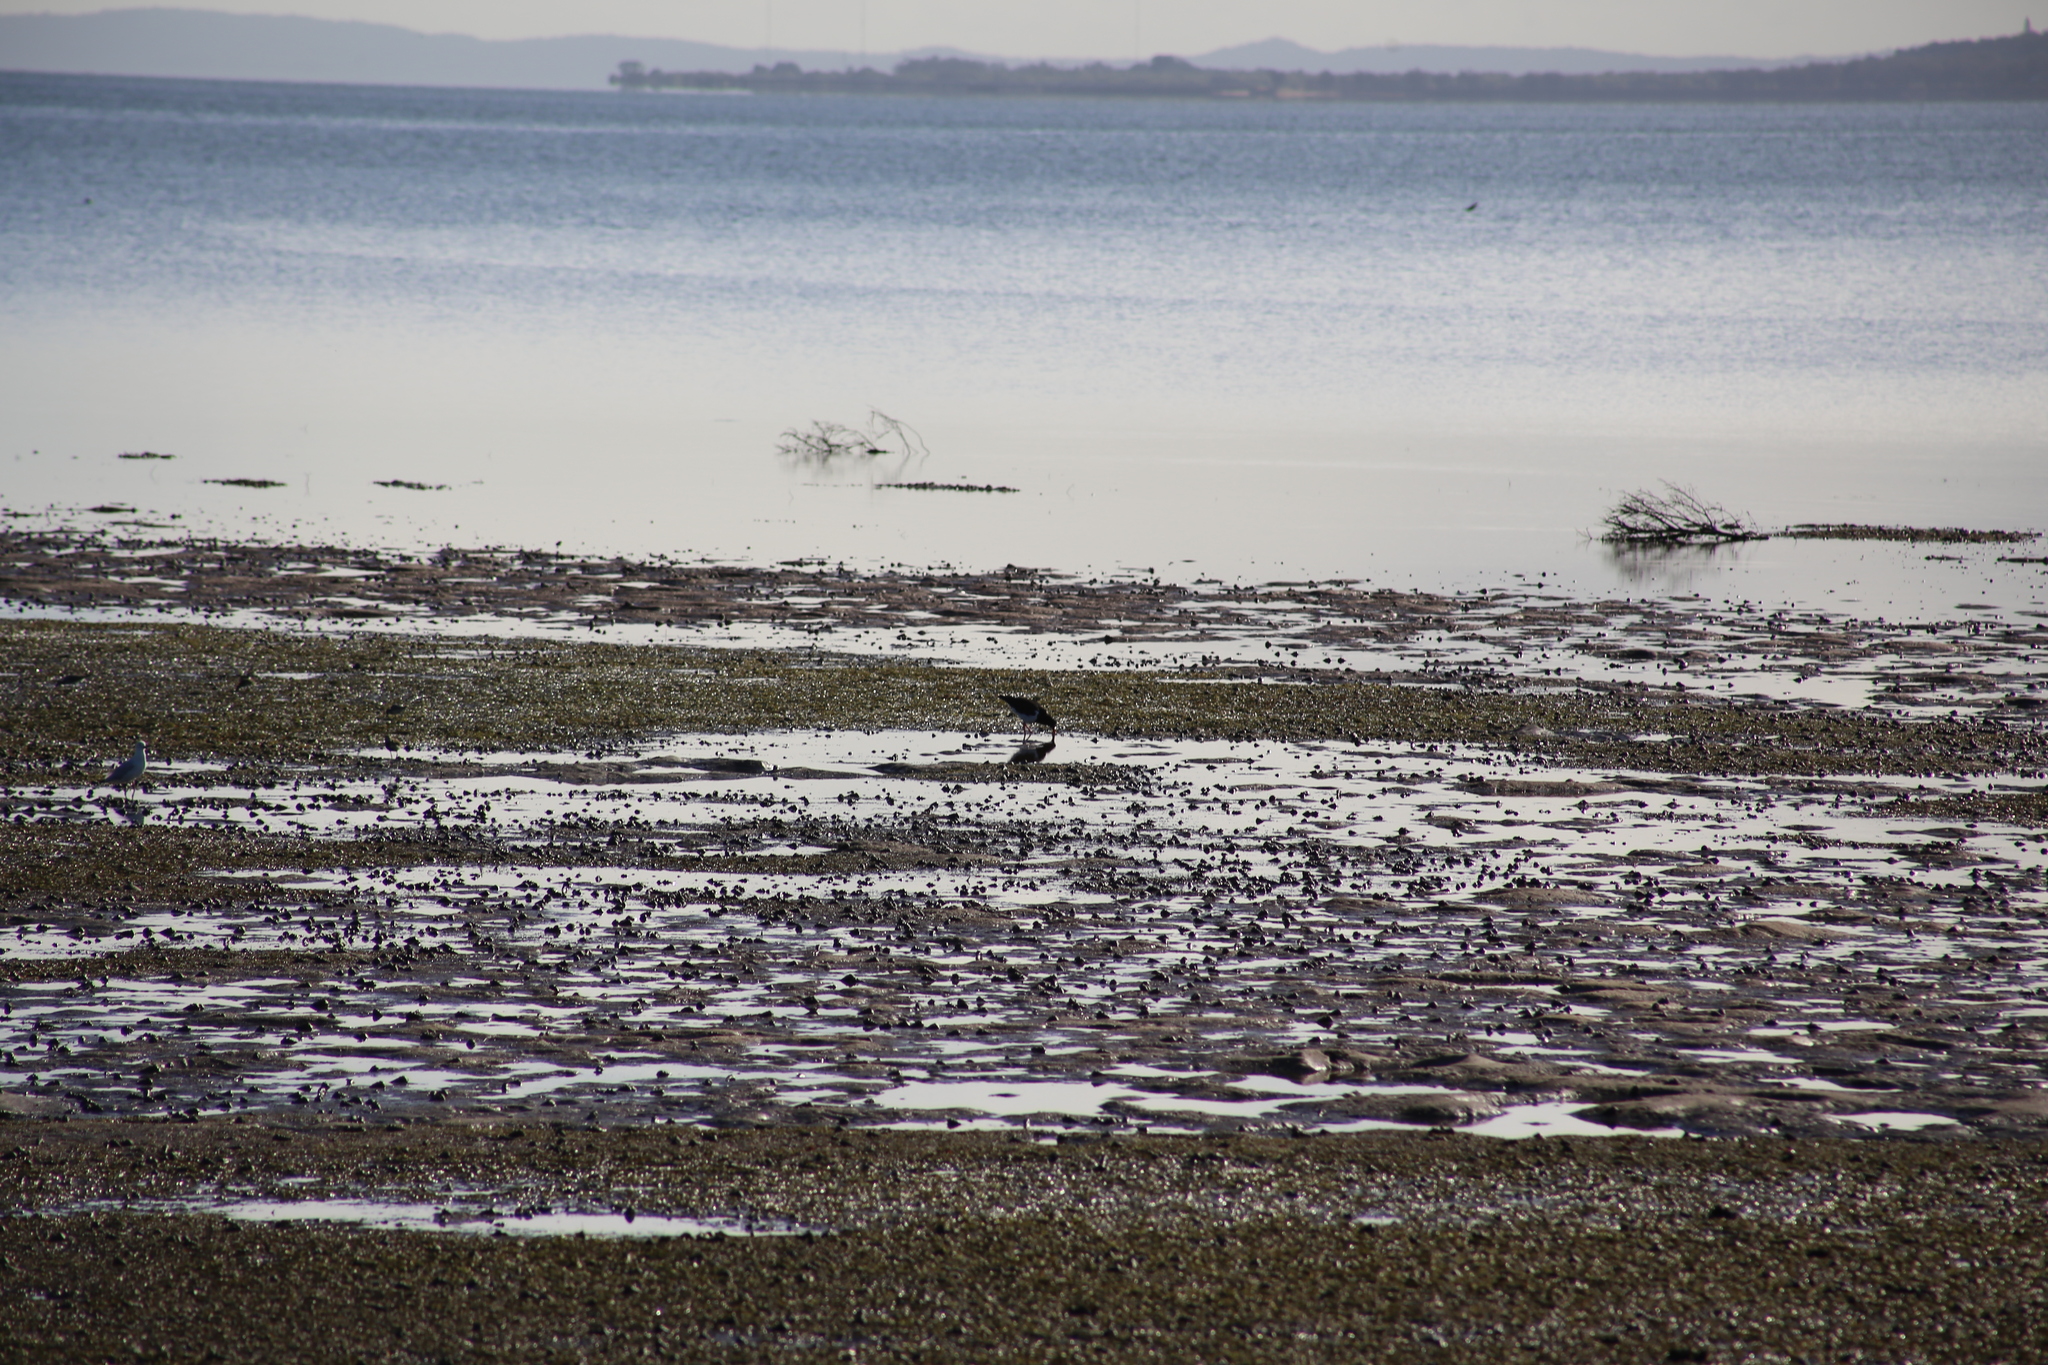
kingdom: Animalia
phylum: Chordata
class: Aves
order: Charadriiformes
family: Haematopodidae
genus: Haematopus
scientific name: Haematopus longirostris
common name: Pied oystercatcher
